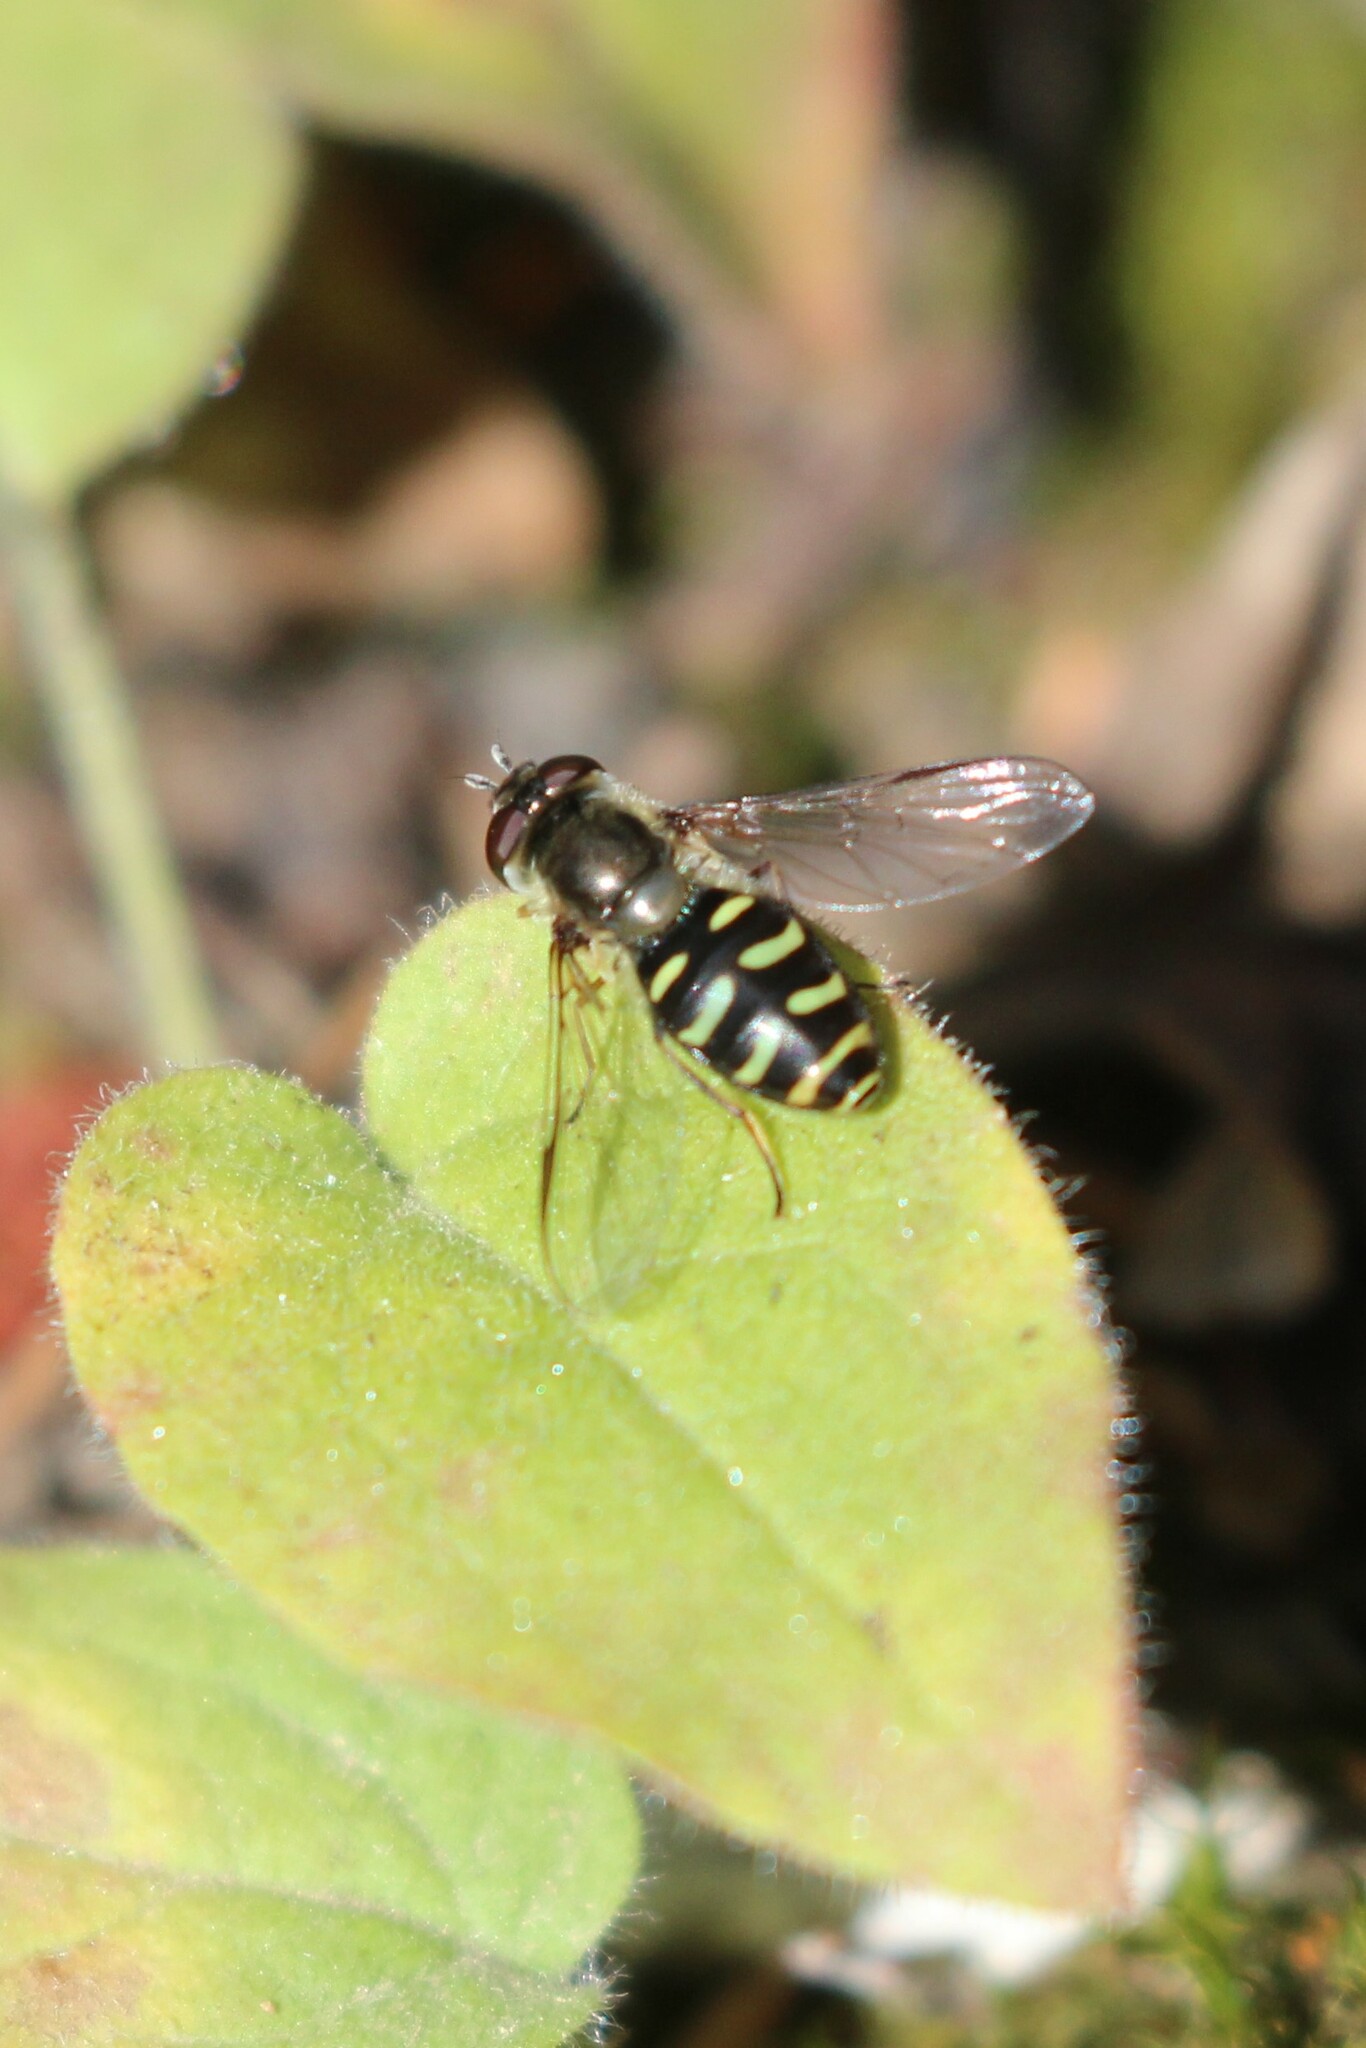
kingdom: Animalia
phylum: Arthropoda
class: Insecta
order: Diptera
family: Syrphidae
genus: Lapposyrphus
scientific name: Lapposyrphus lapponicus
